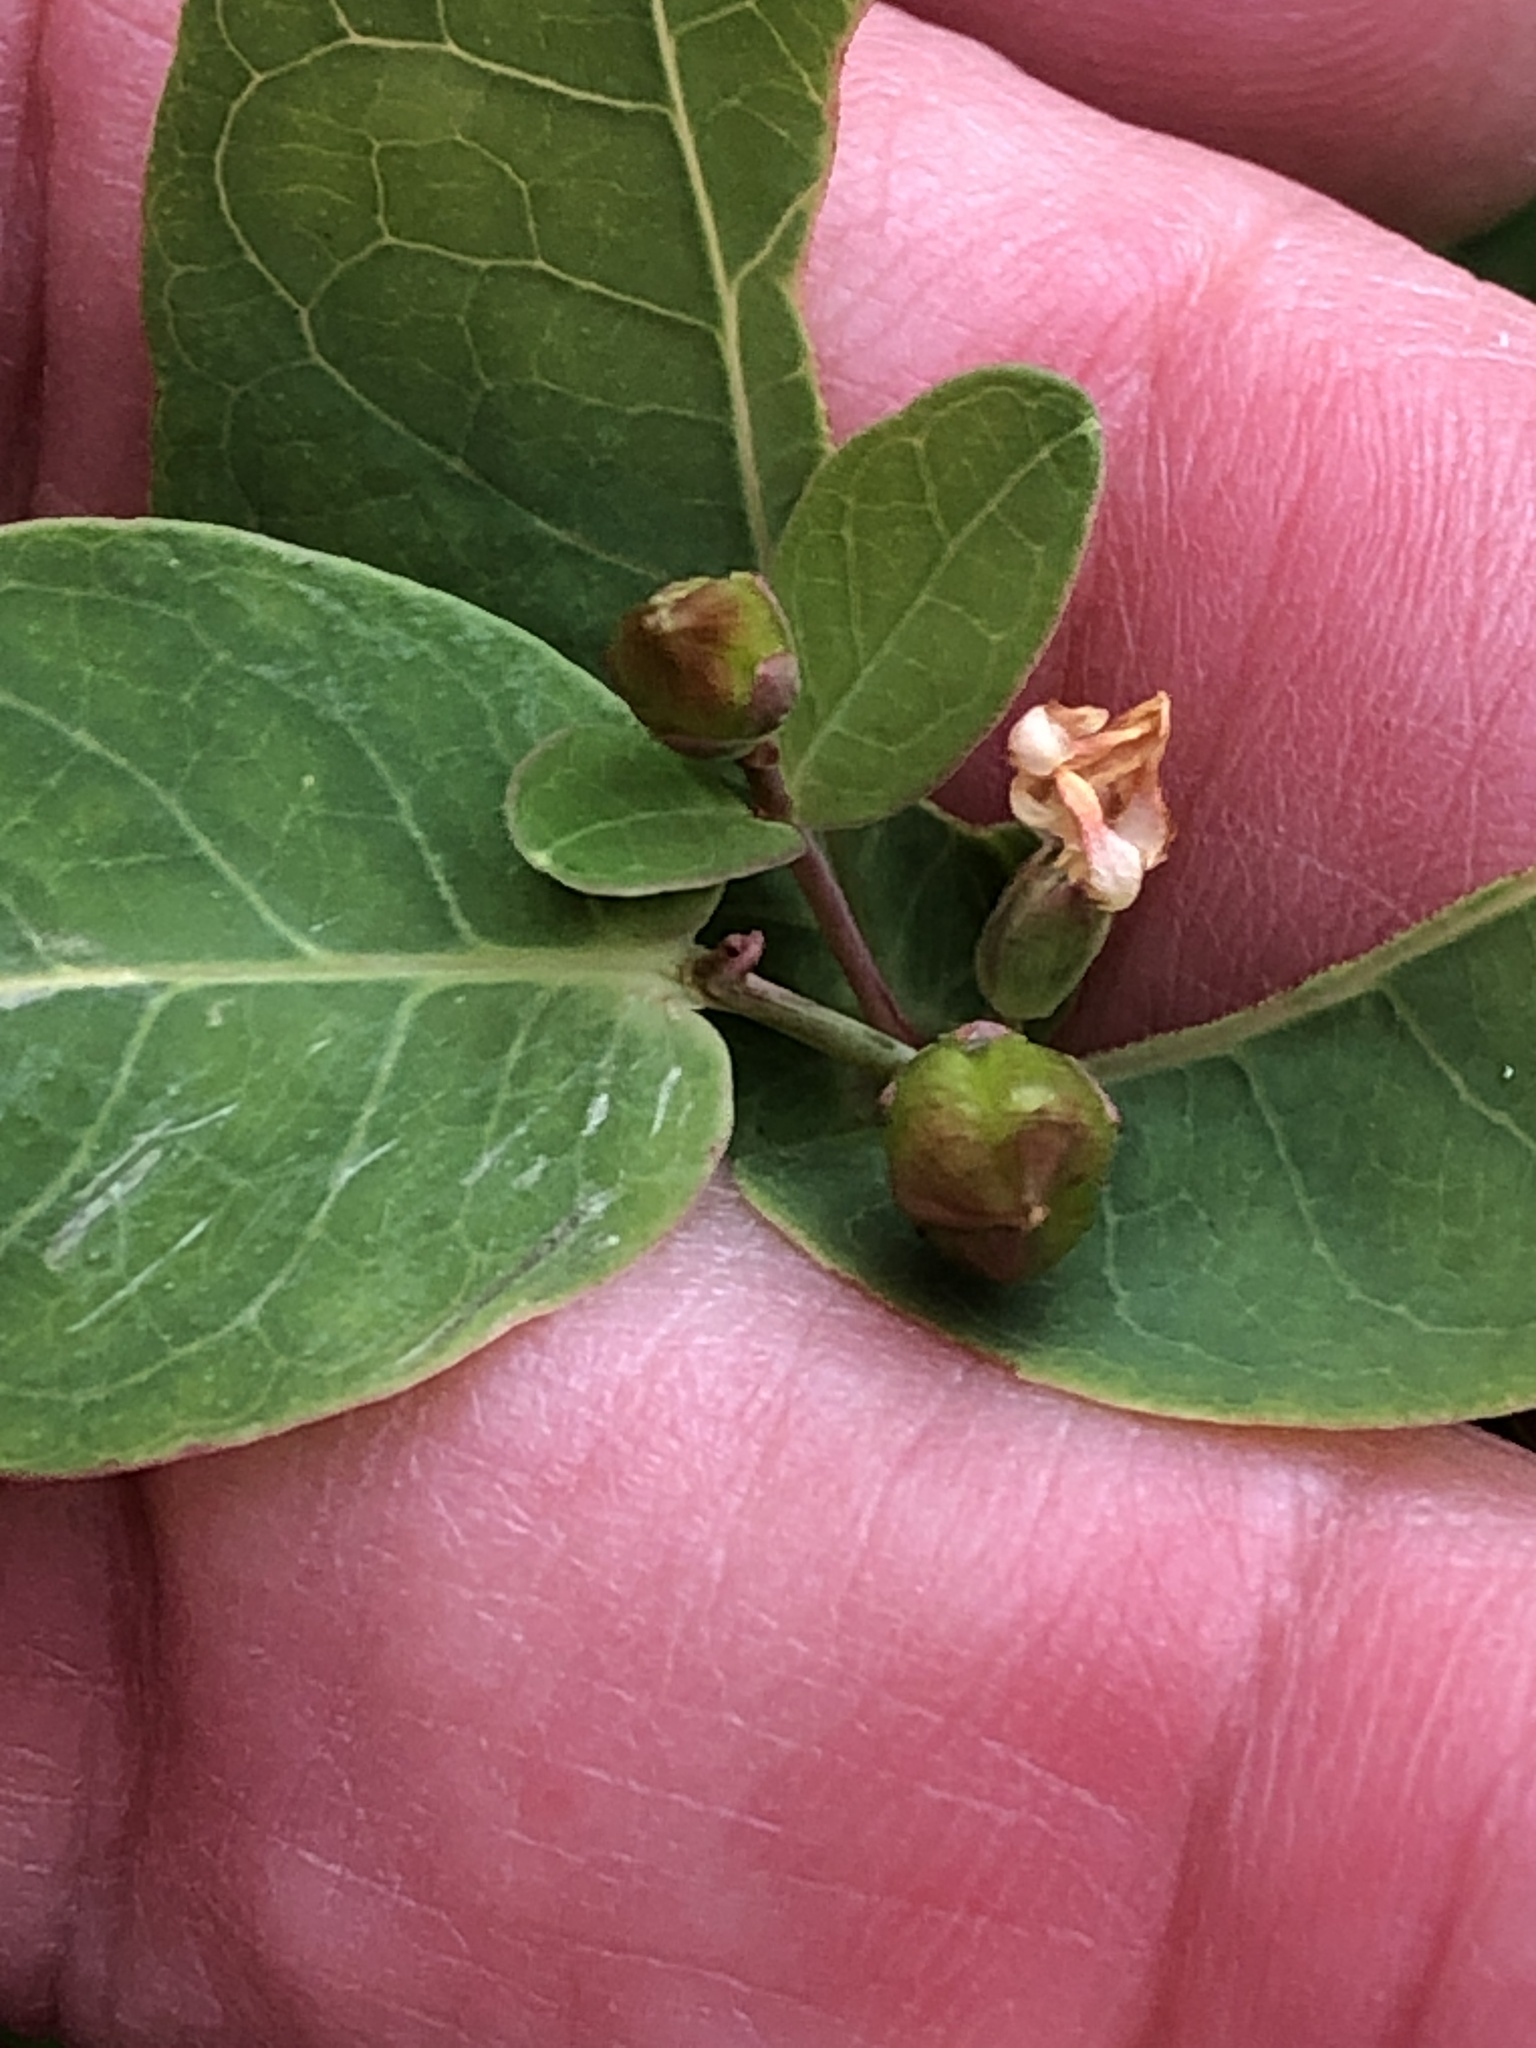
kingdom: Plantae
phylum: Tracheophyta
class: Magnoliopsida
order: Malpighiales
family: Hypericaceae
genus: Triadenum
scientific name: Triadenum fraseri
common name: Fraser's marsh st. johnswort
